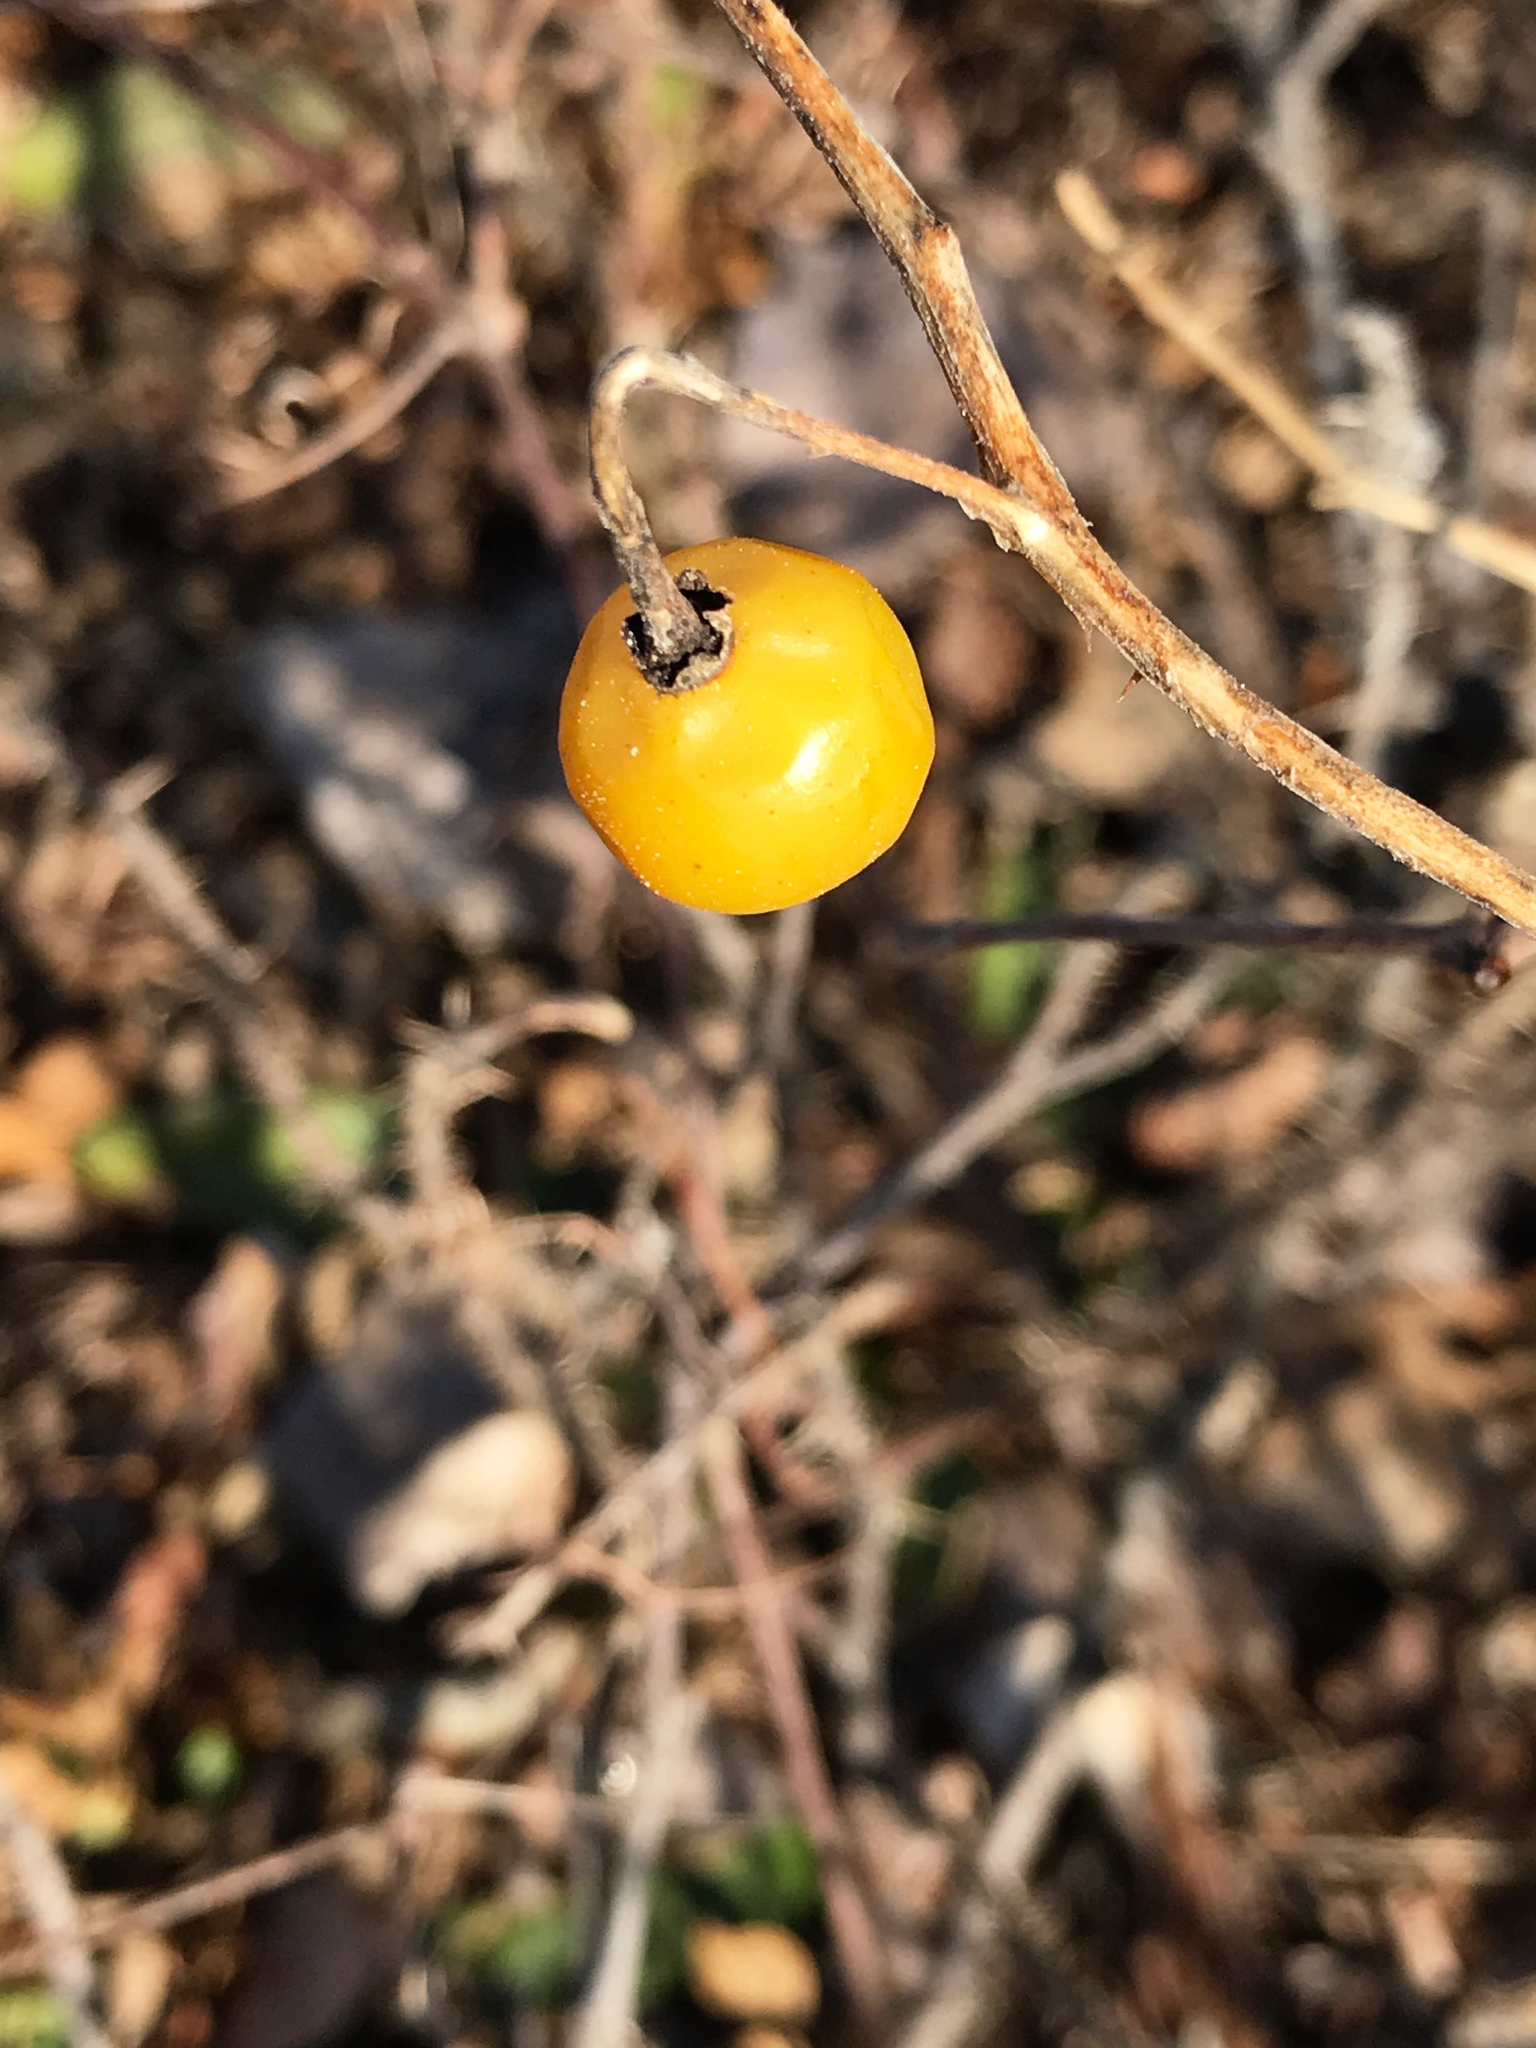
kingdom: Plantae
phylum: Tracheophyta
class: Magnoliopsida
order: Solanales
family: Solanaceae
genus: Solanum
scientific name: Solanum carolinense
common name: Horse-nettle
